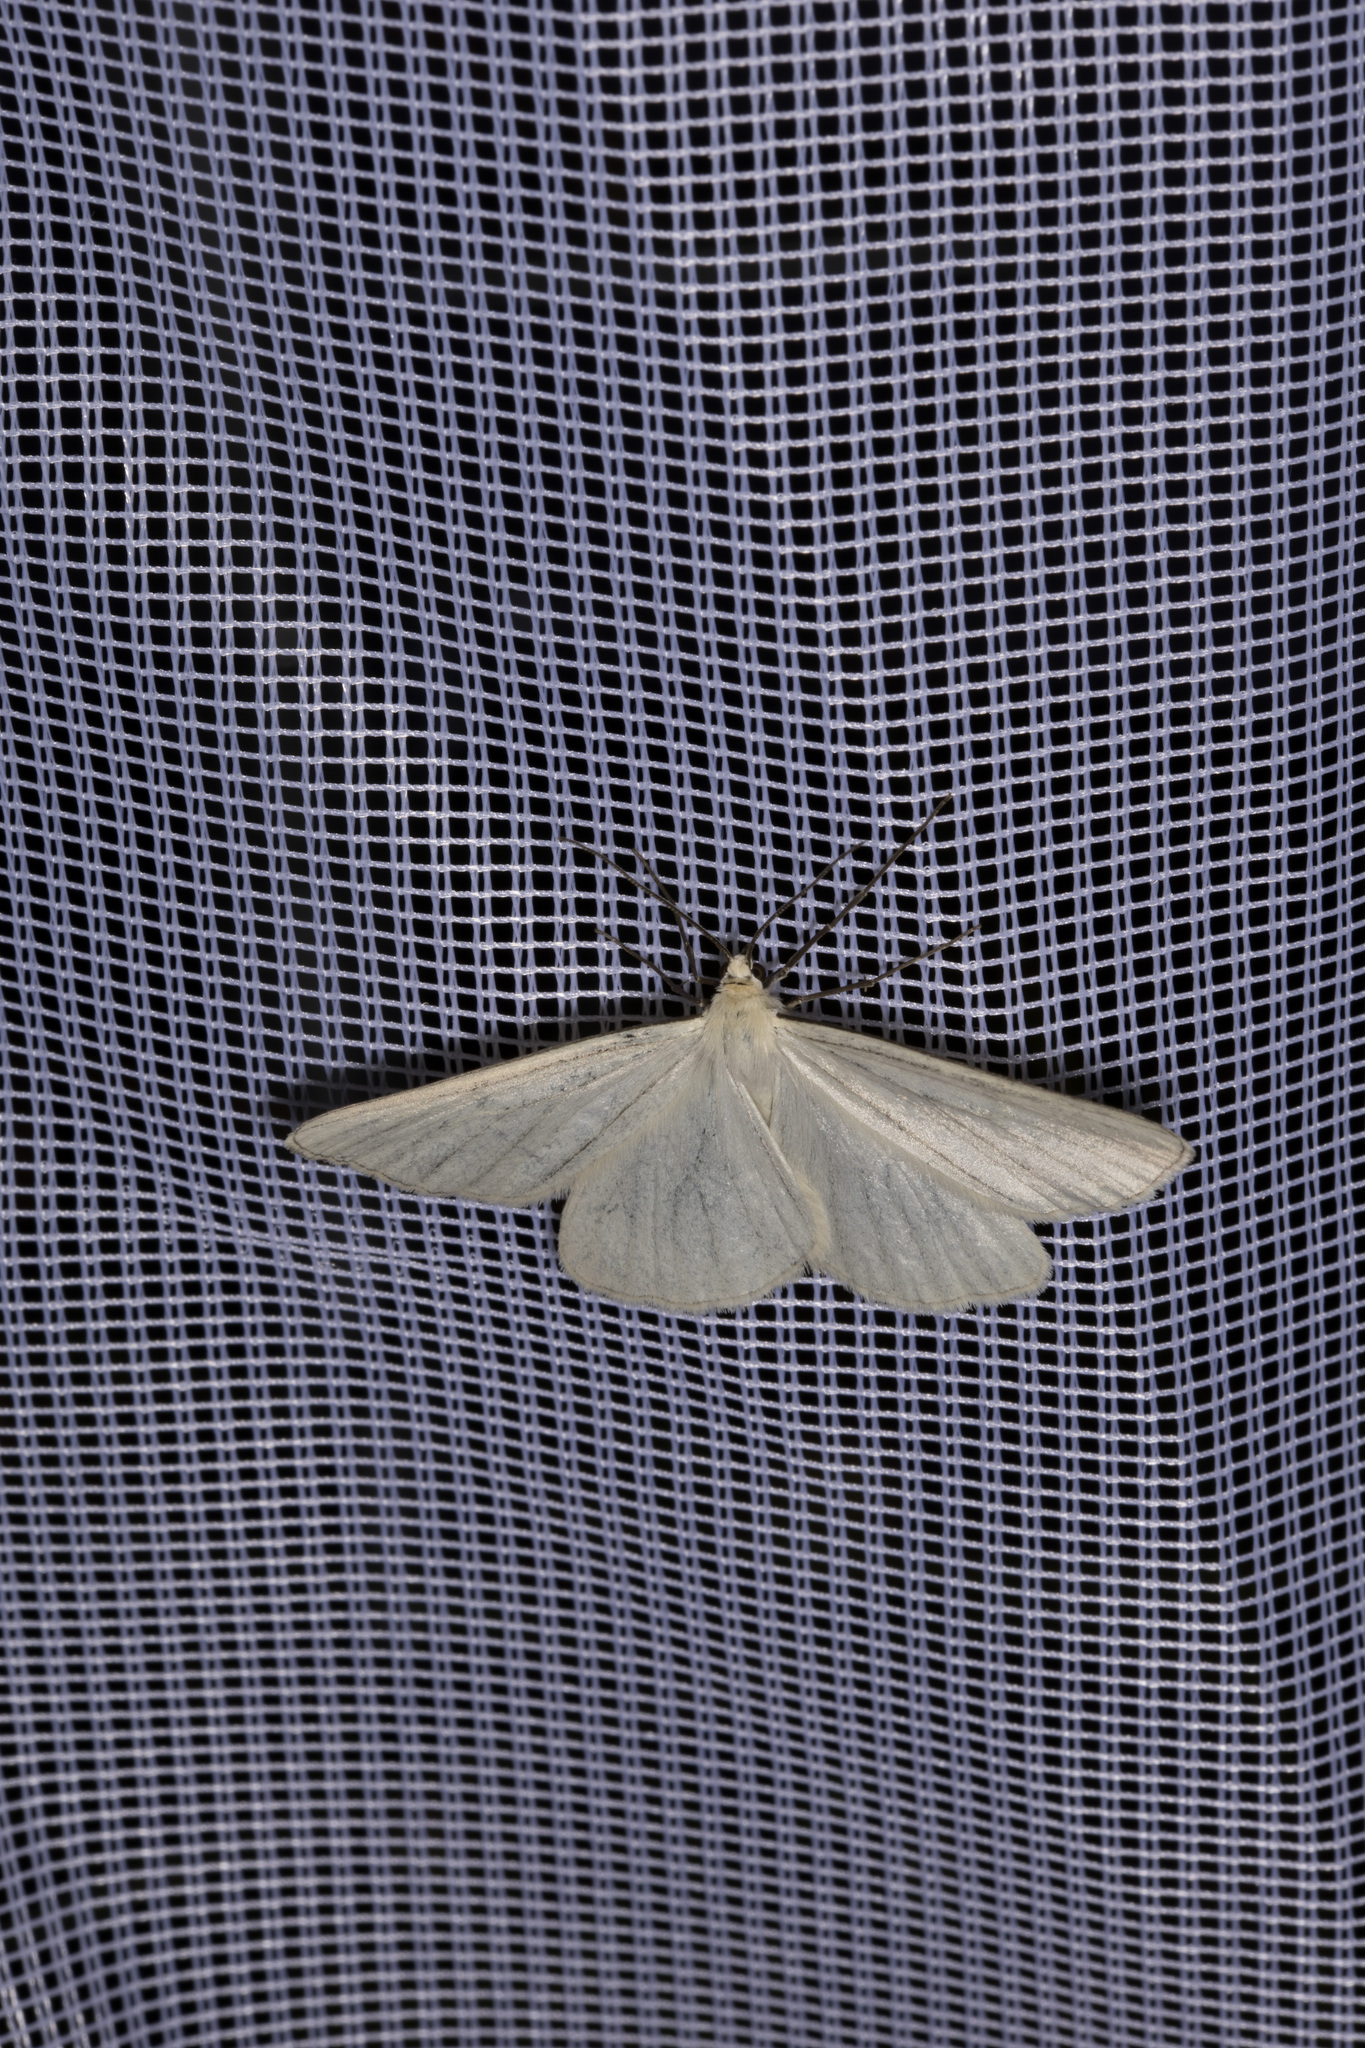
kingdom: Animalia
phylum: Arthropoda
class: Insecta
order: Lepidoptera
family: Geometridae
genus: Siona
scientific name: Siona lineata
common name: Black-veined moth
